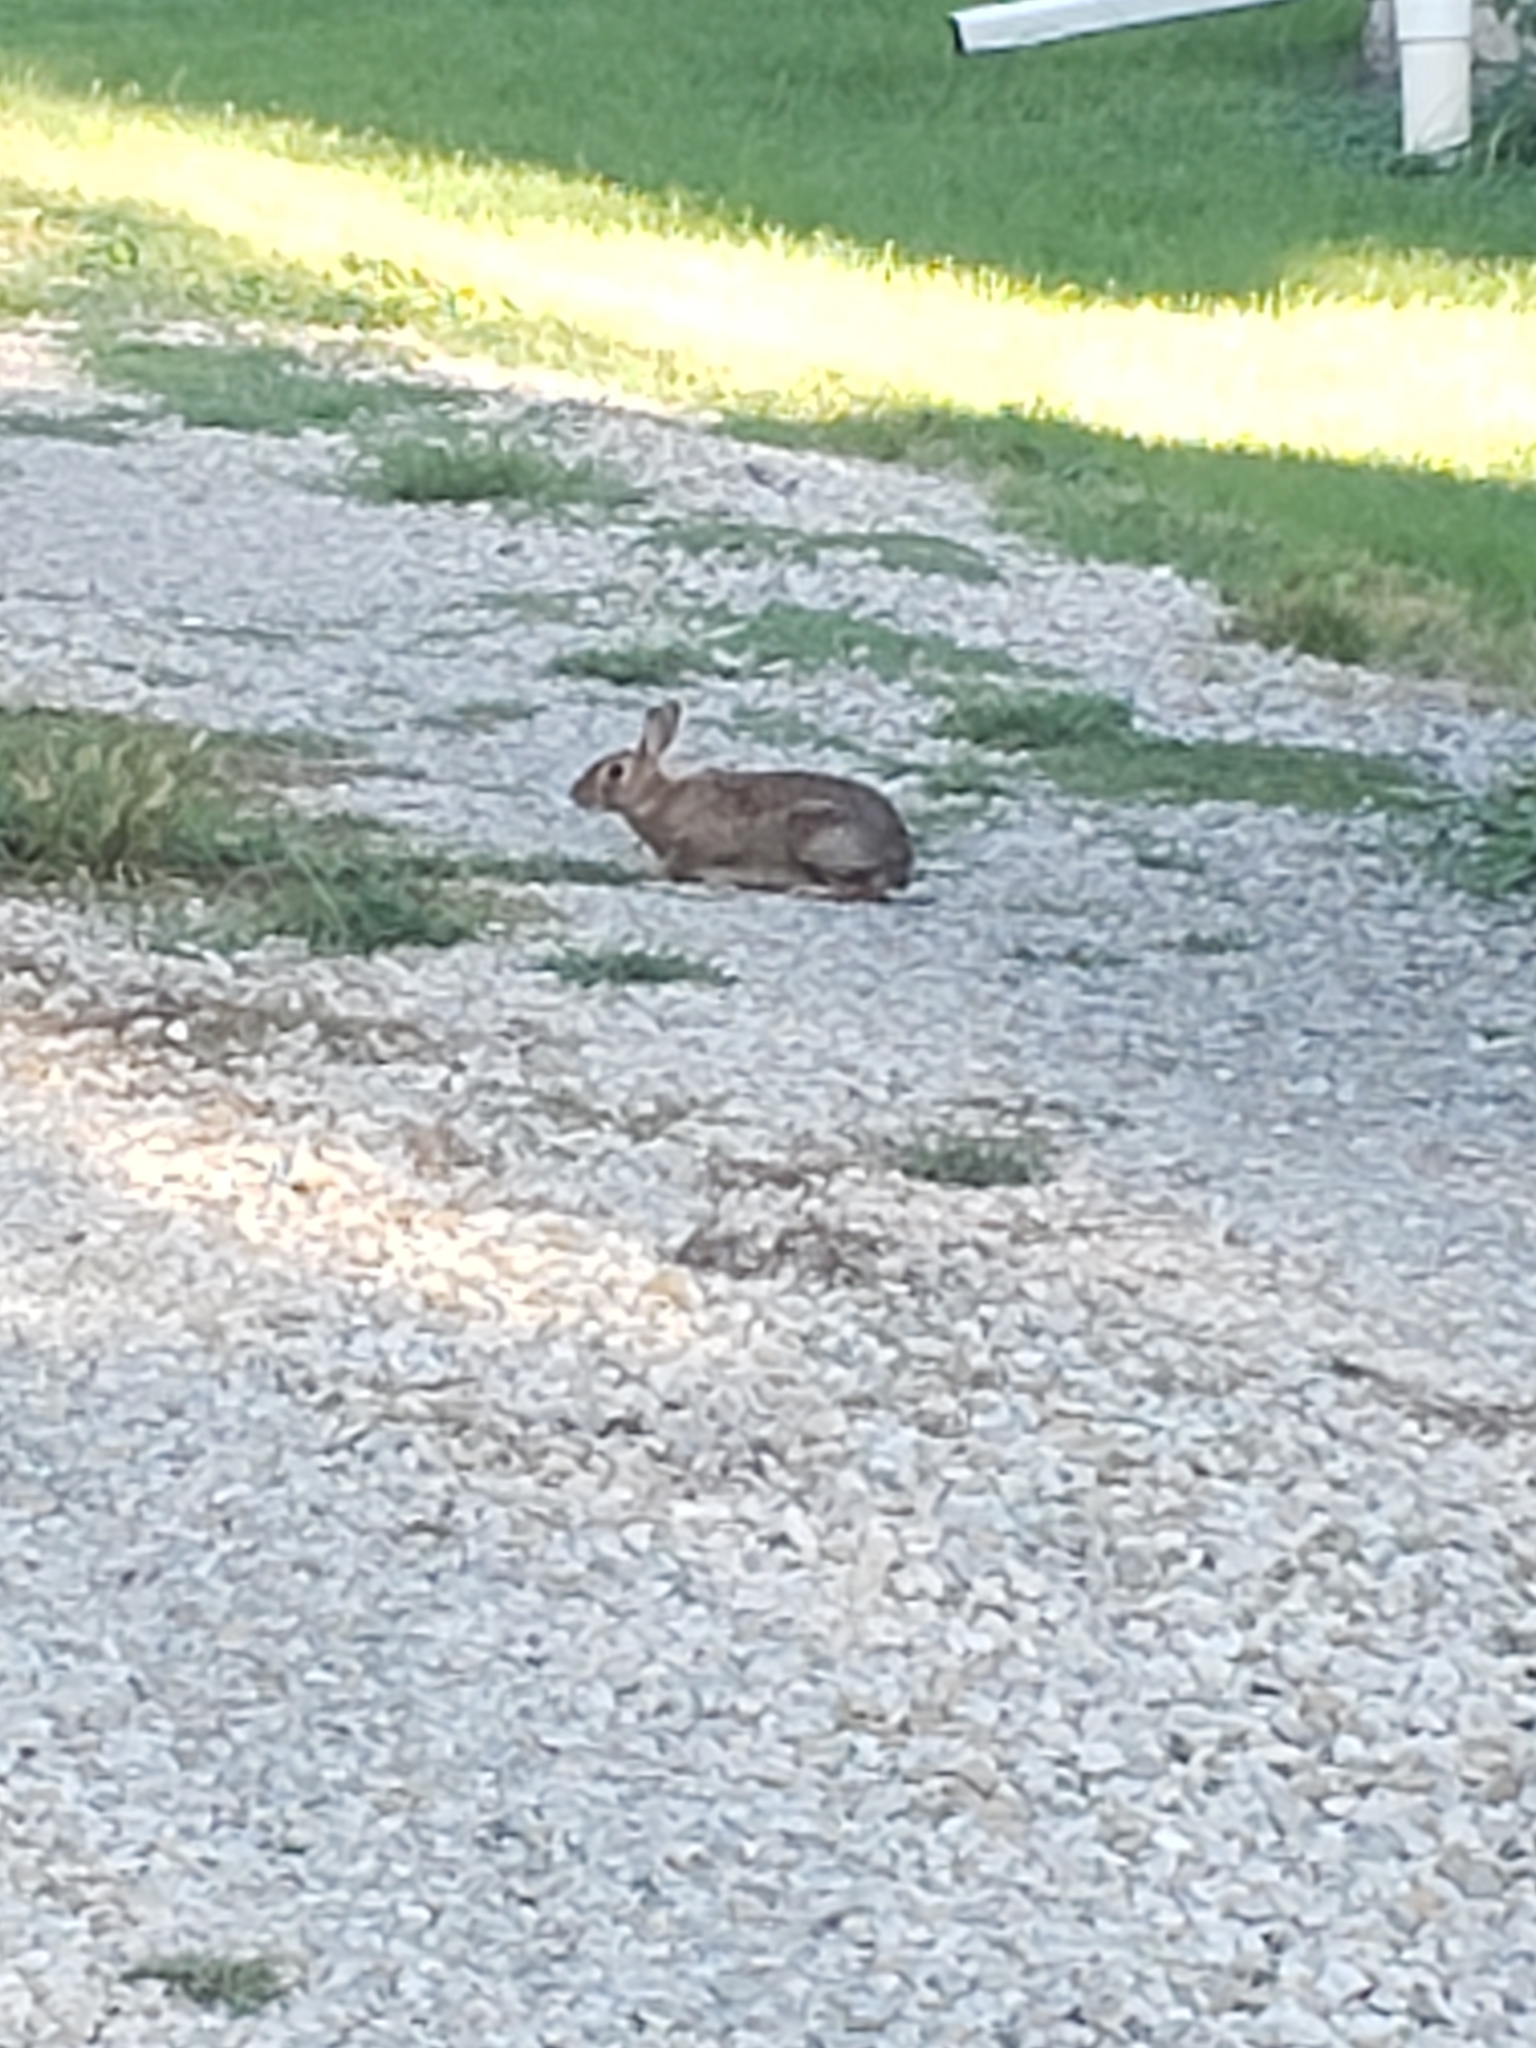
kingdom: Animalia
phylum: Chordata
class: Mammalia
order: Lagomorpha
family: Leporidae
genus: Sylvilagus
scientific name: Sylvilagus floridanus
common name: Eastern cottontail
